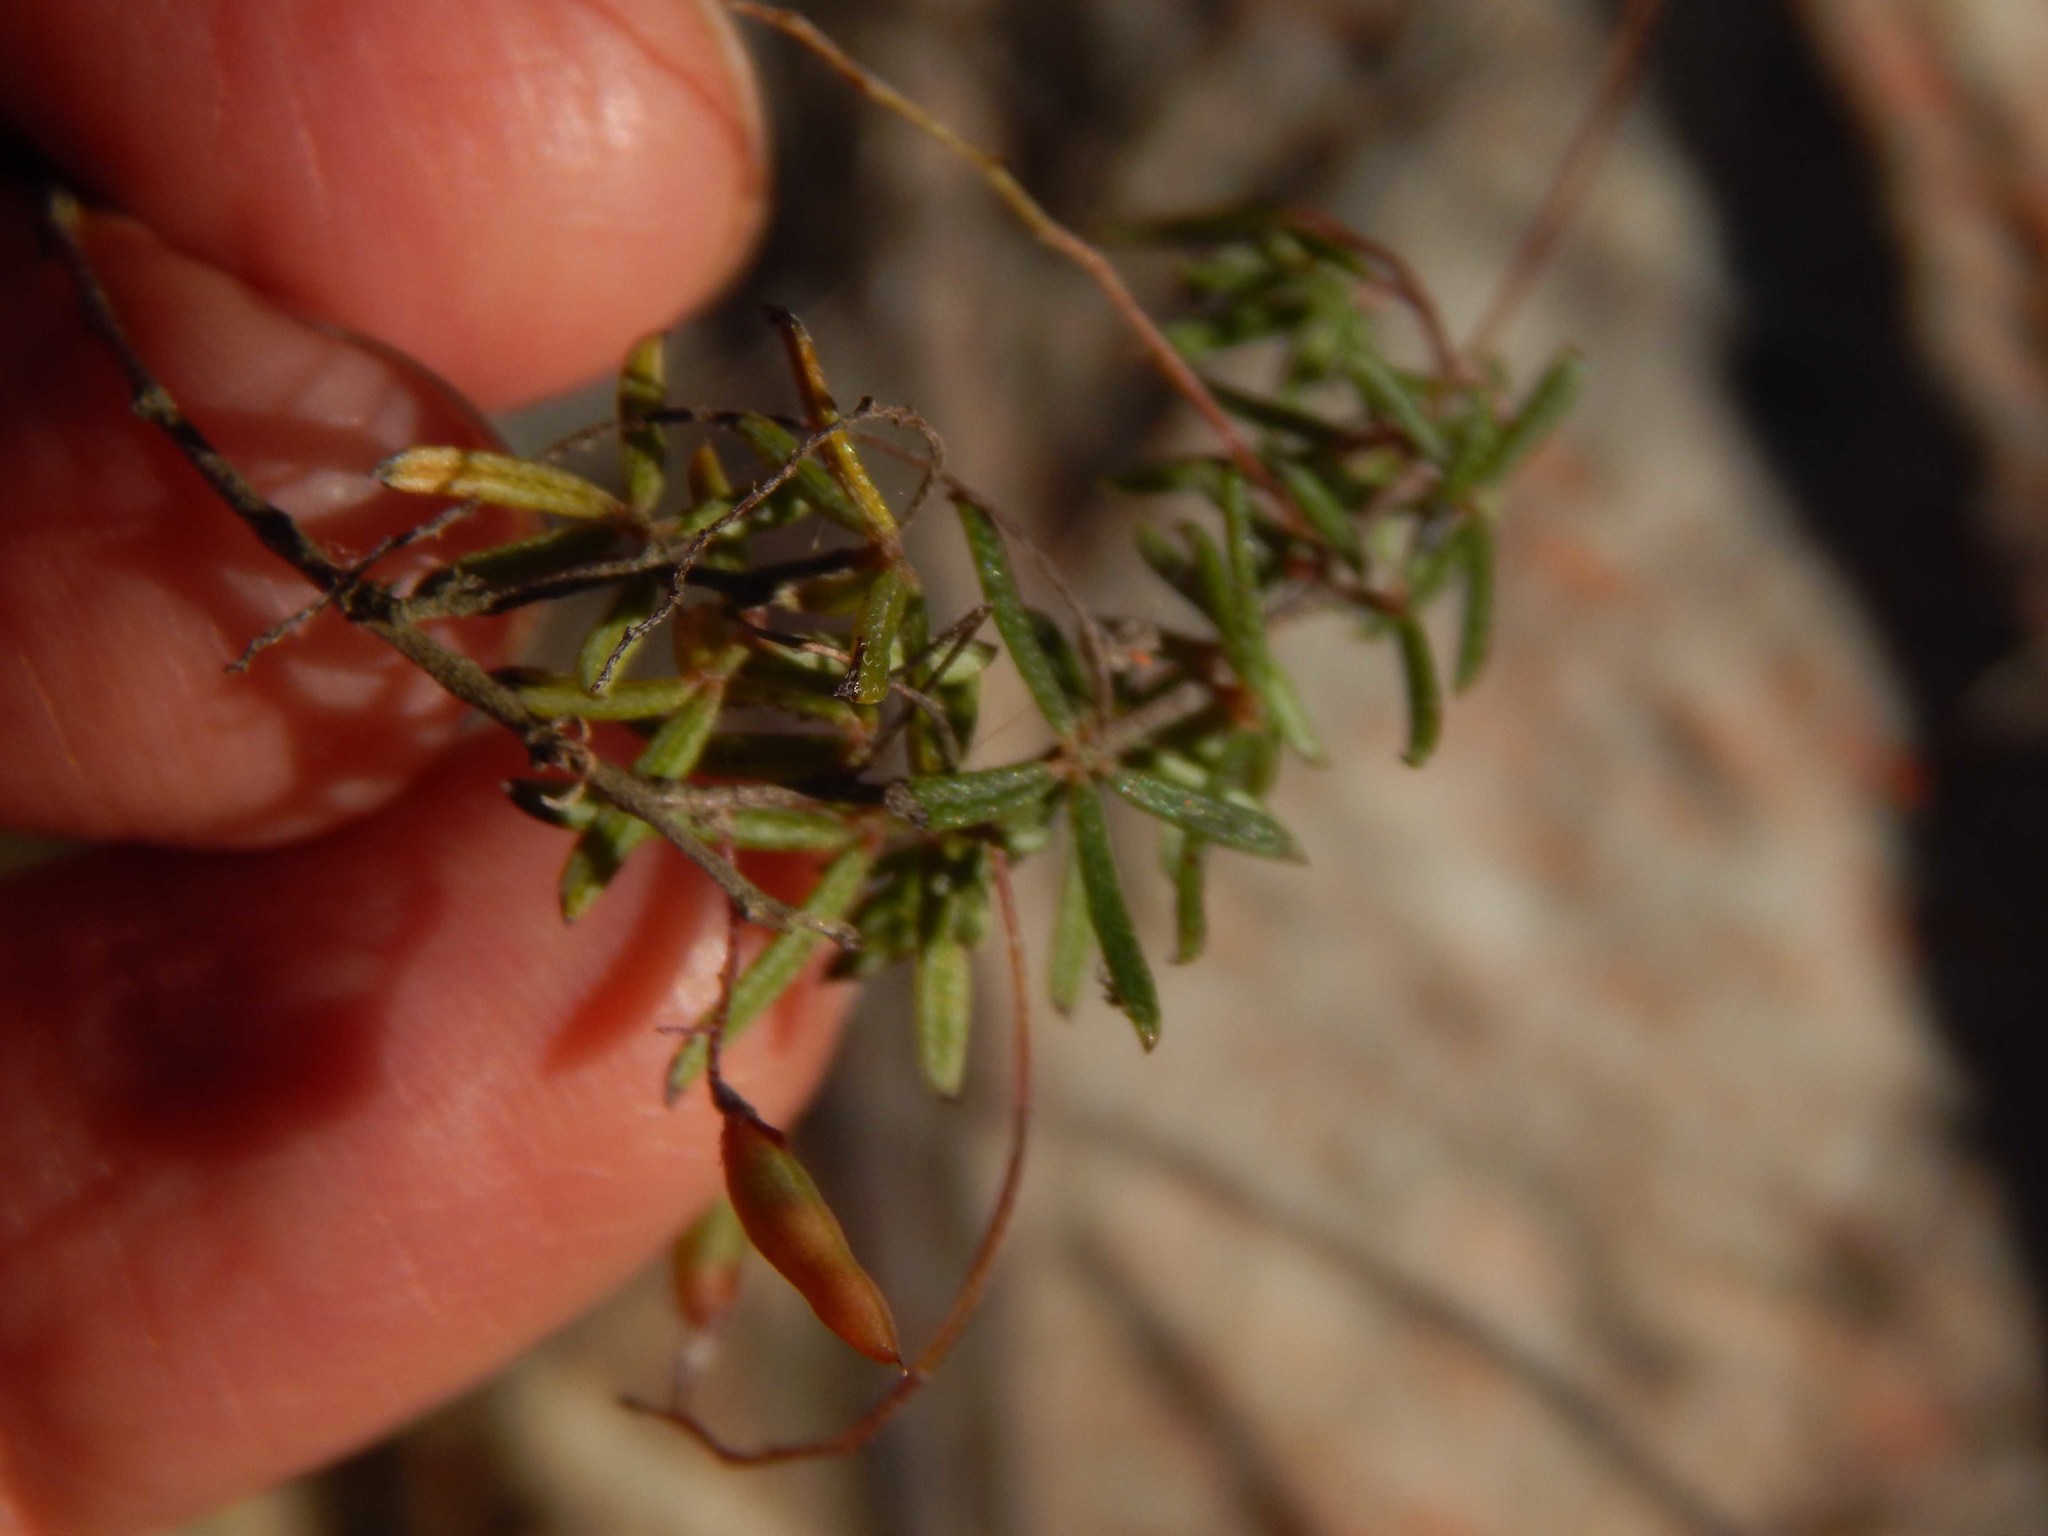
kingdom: Plantae
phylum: Tracheophyta
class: Magnoliopsida
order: Fabales
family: Fabaceae
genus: Indigofera
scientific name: Indigofera angustifolia
